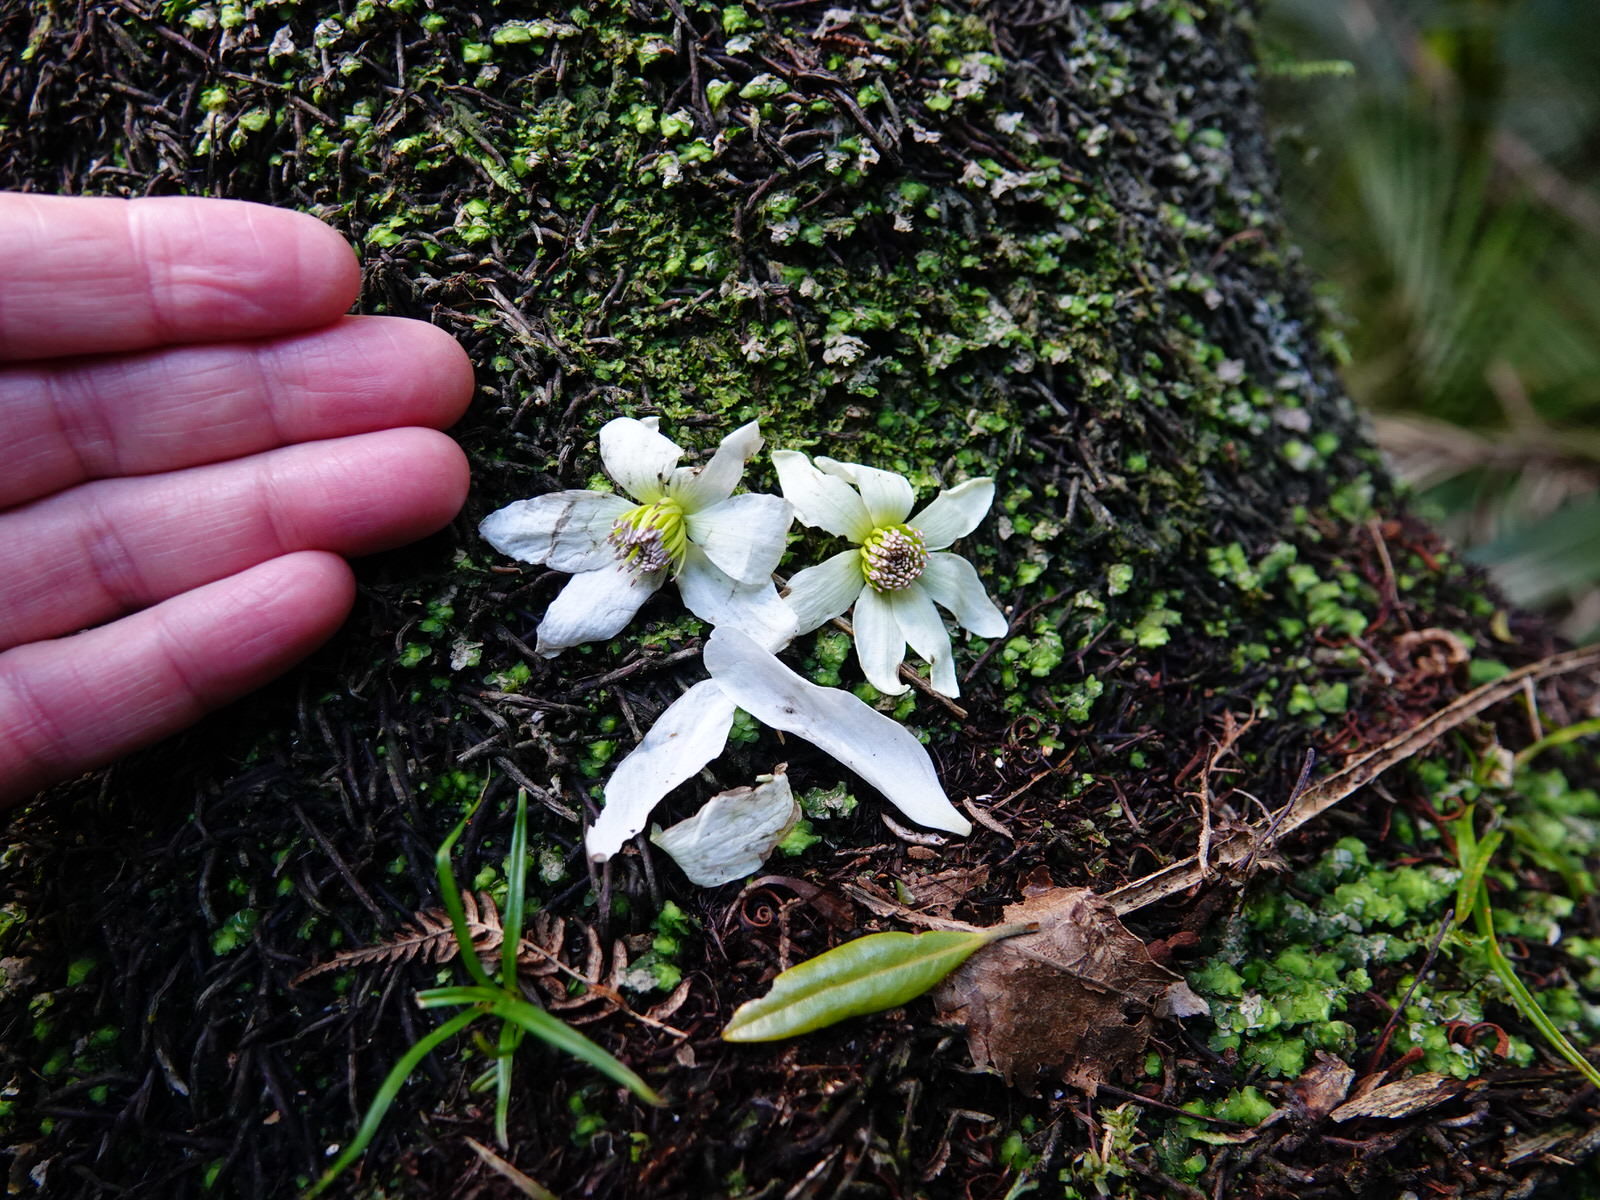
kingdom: Plantae
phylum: Tracheophyta
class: Magnoliopsida
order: Ranunculales
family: Ranunculaceae
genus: Clematis
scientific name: Clematis paniculata
